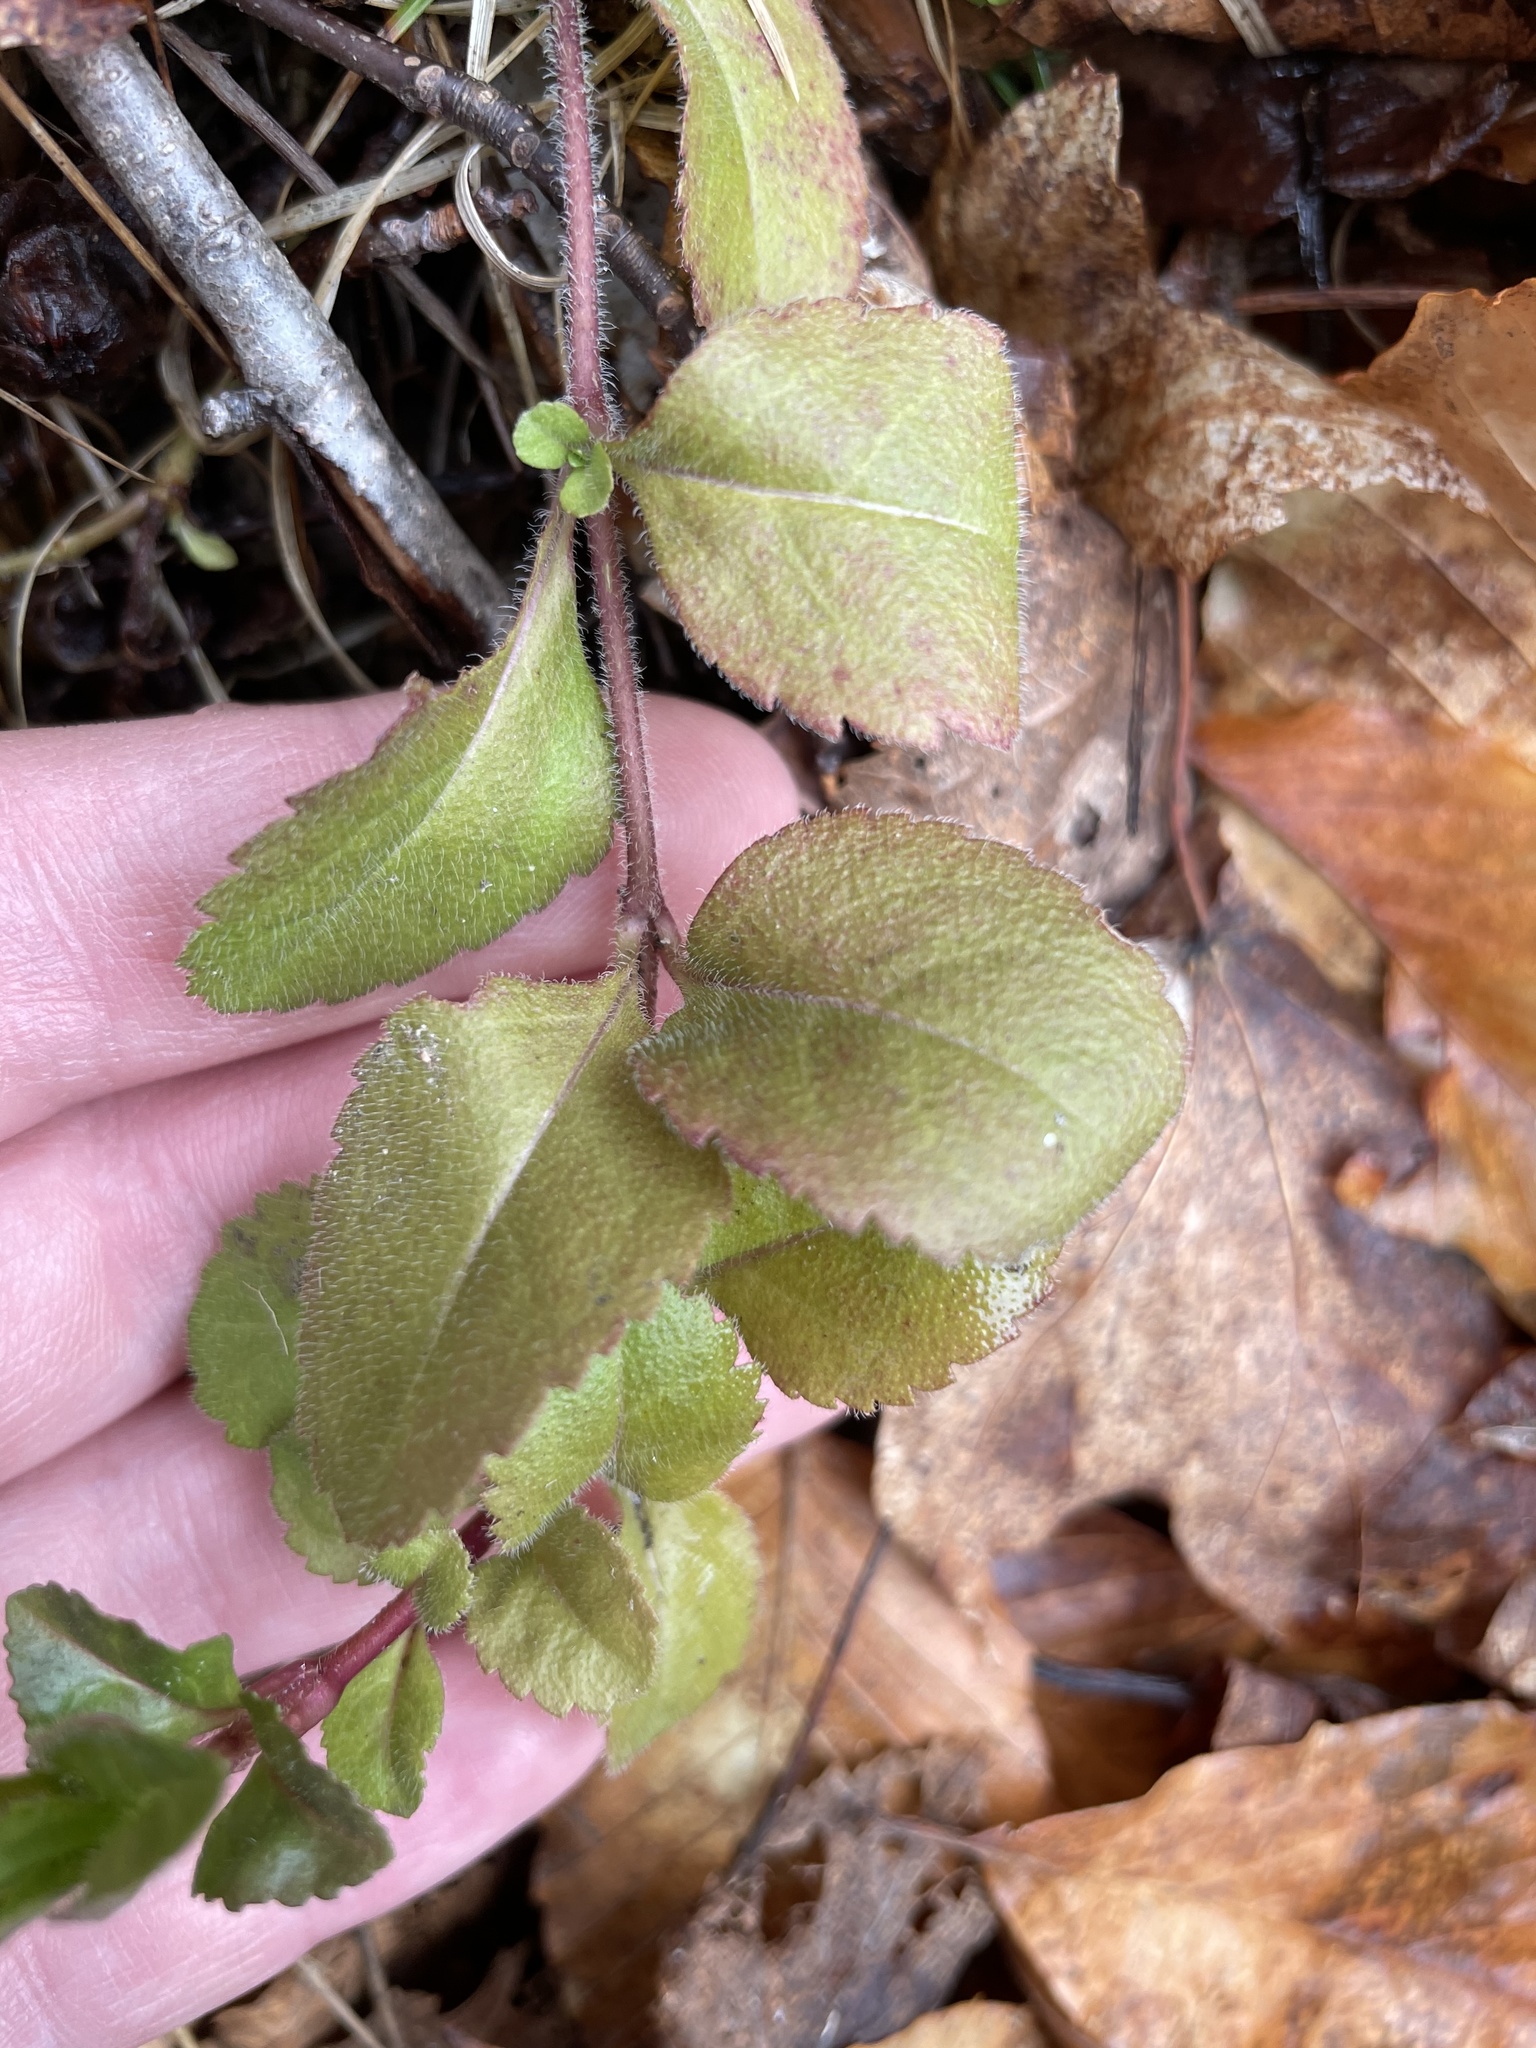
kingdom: Plantae
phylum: Tracheophyta
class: Magnoliopsida
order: Lamiales
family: Plantaginaceae
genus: Veronica
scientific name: Veronica officinalis
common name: Common speedwell
